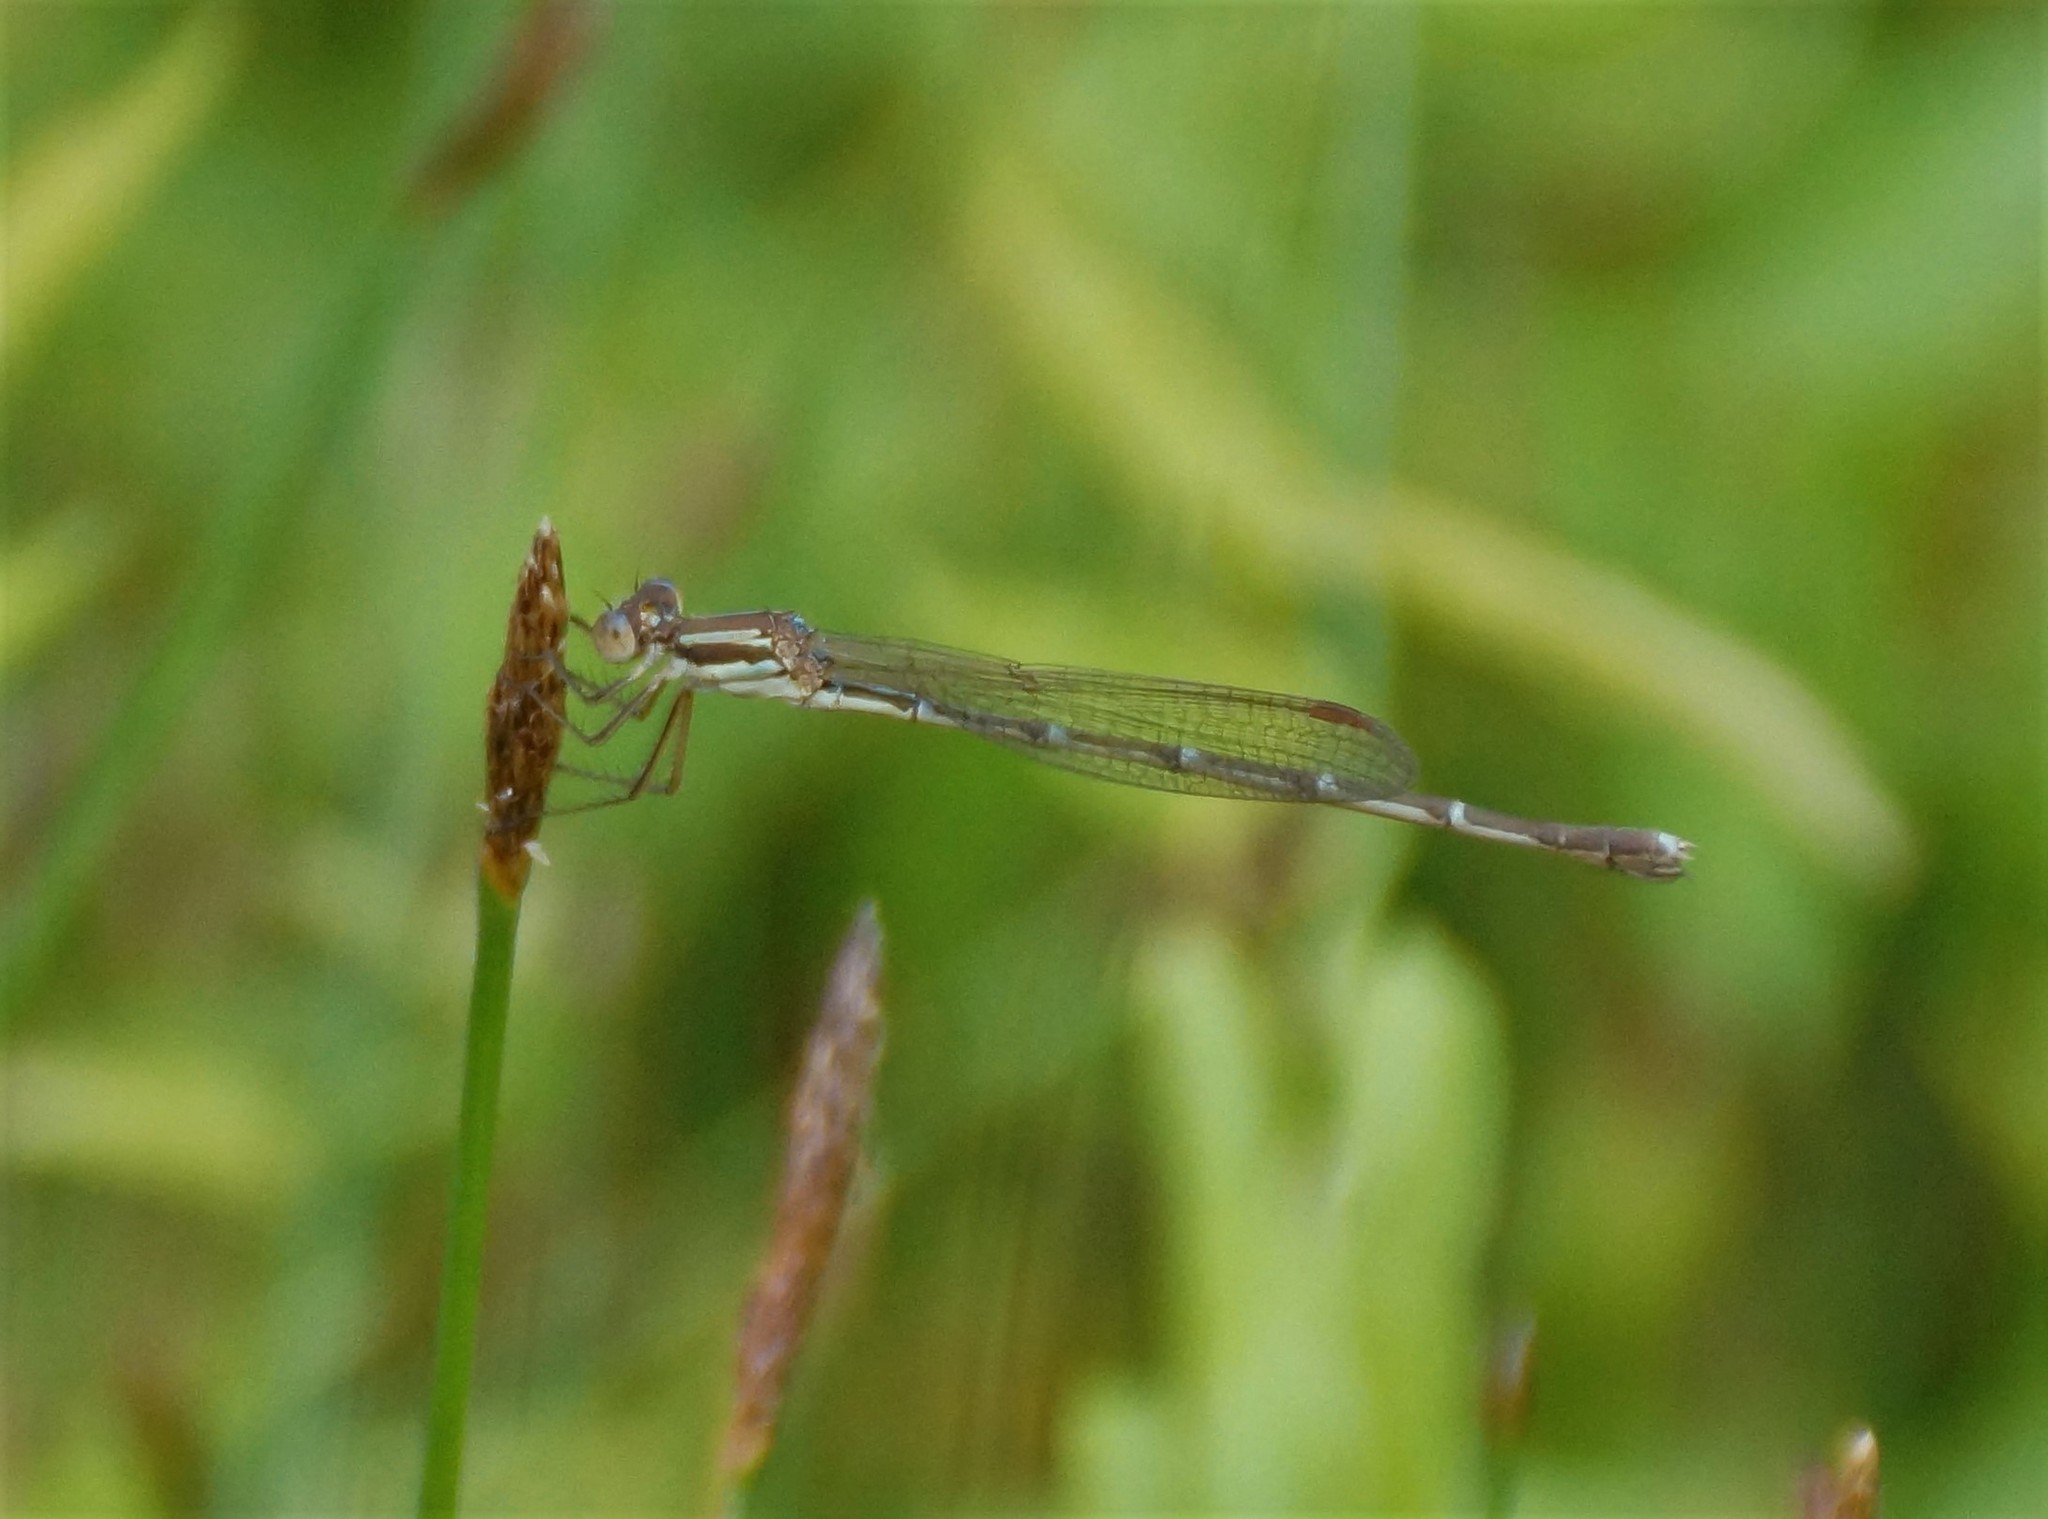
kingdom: Animalia
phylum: Arthropoda
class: Insecta
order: Odonata
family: Lestidae
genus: Austrolestes
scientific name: Austrolestes analis
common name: Slender ringtail
